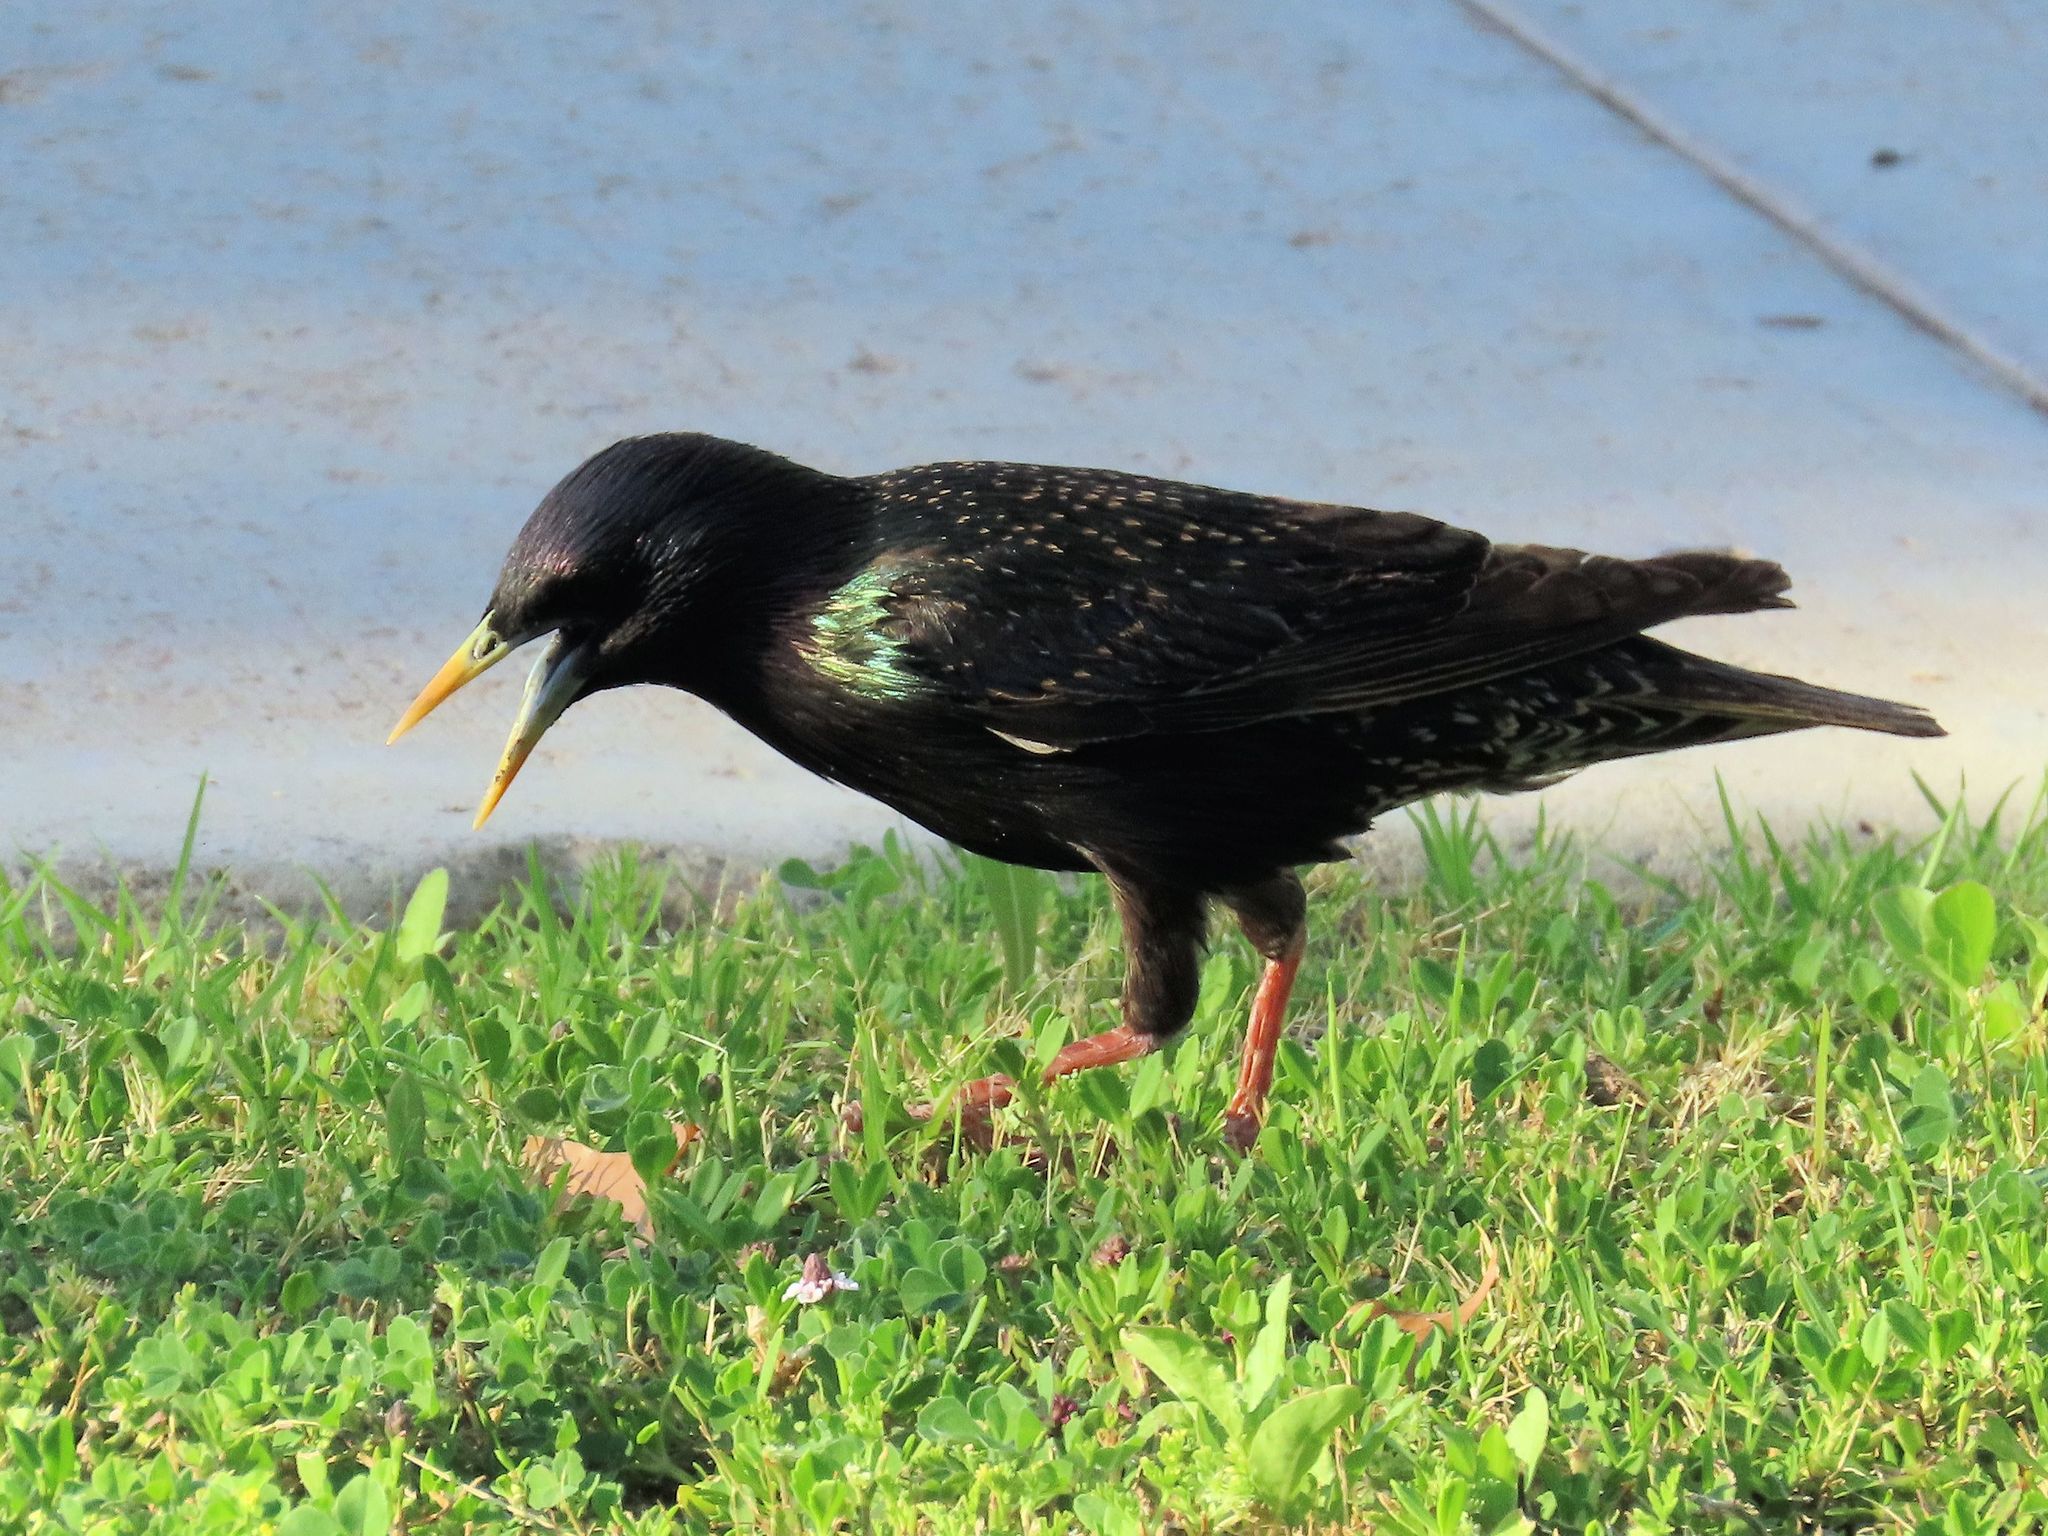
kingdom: Animalia
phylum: Chordata
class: Aves
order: Passeriformes
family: Sturnidae
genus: Sturnus
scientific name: Sturnus vulgaris
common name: Common starling
